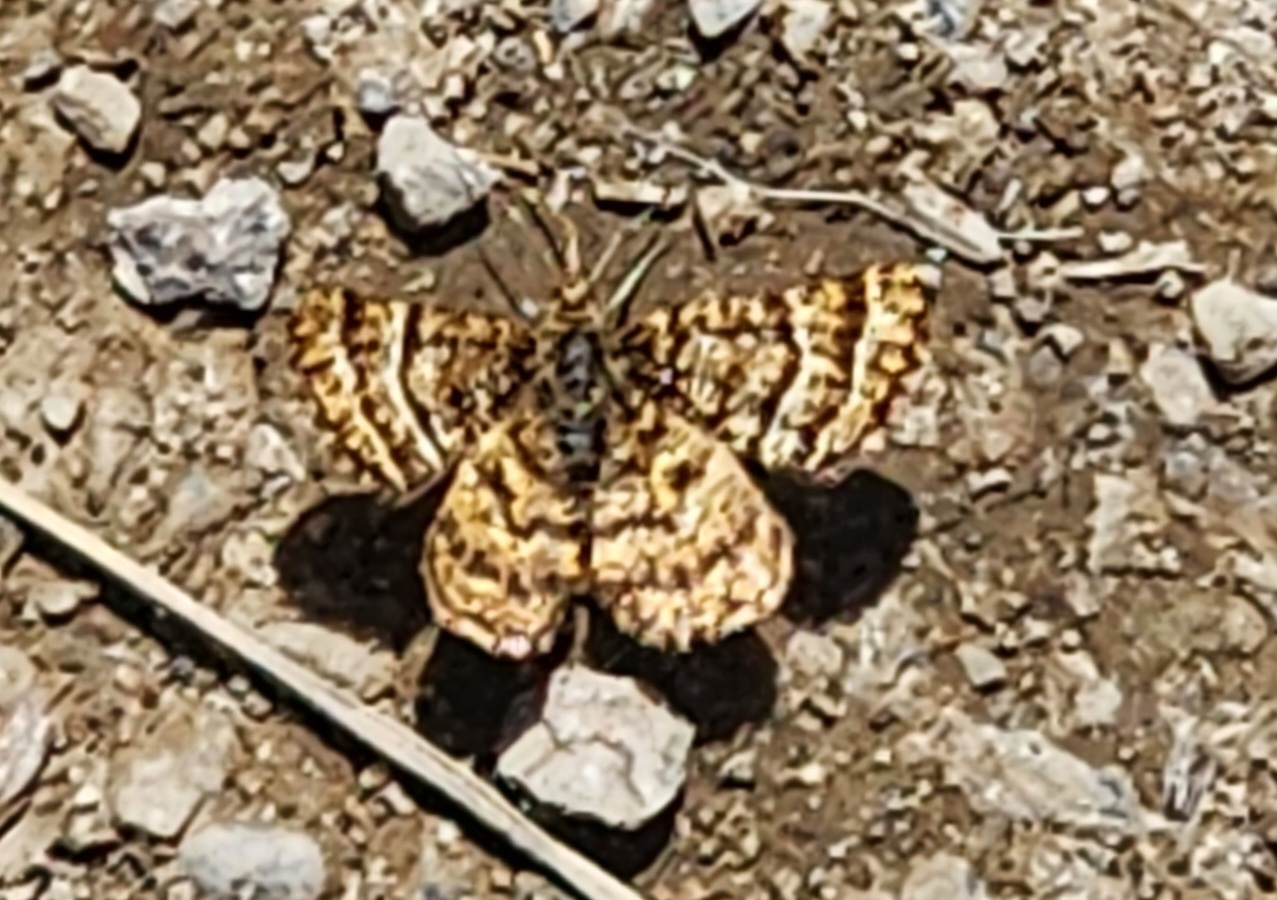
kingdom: Animalia
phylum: Arthropoda
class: Insecta
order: Lepidoptera
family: Geometridae
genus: Macaria
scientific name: Macaria truncataria
